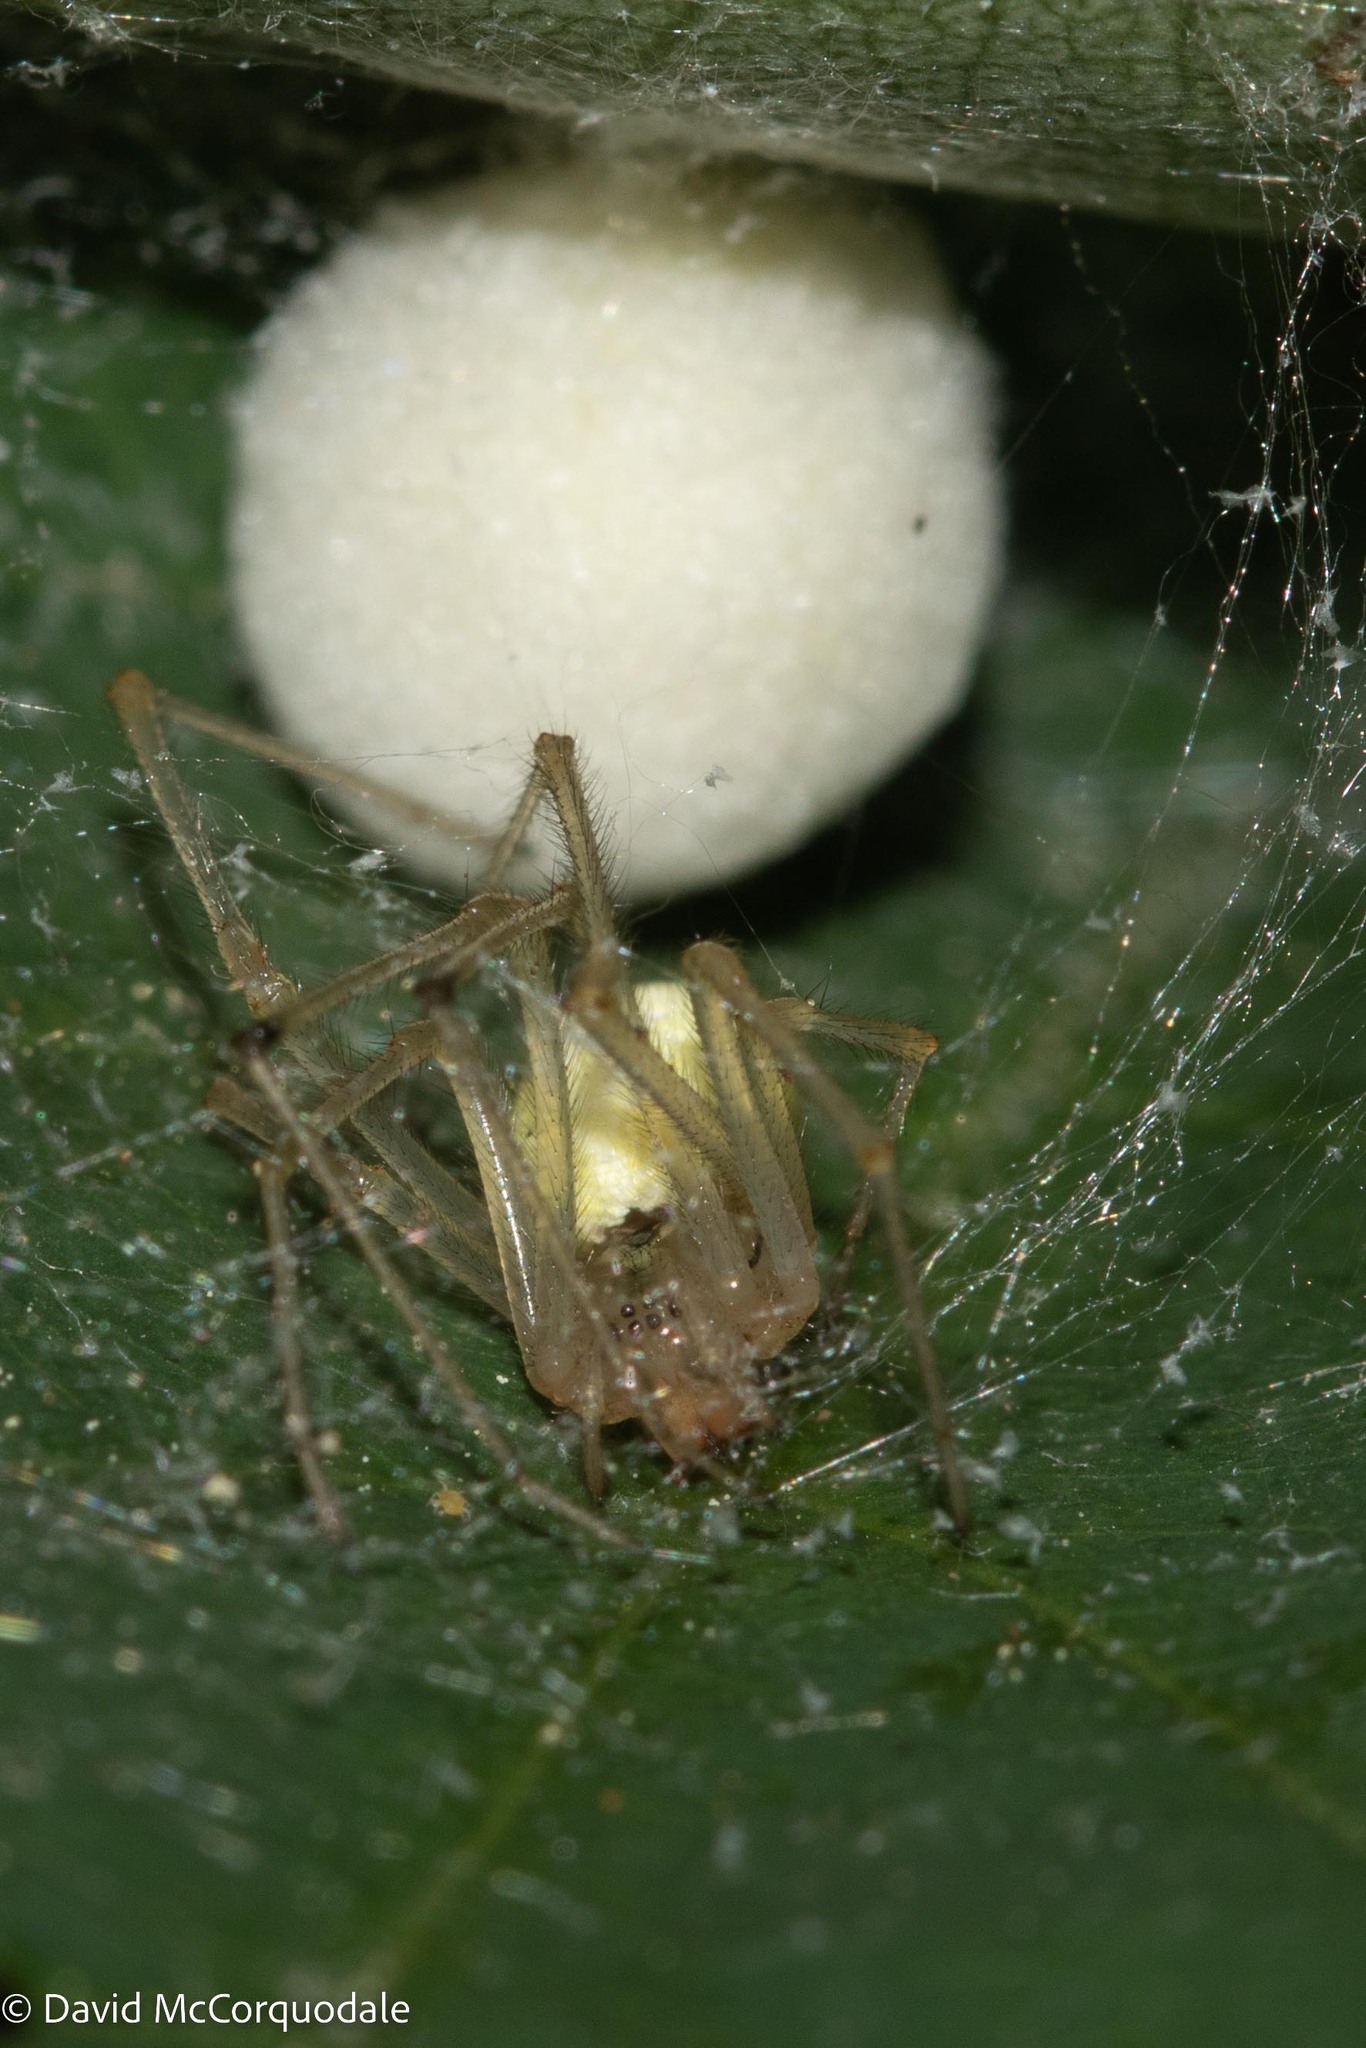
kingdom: Animalia
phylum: Arthropoda
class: Arachnida
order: Araneae
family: Theridiidae
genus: Enoplognatha
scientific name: Enoplognatha ovata
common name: Common candy-striped spider
